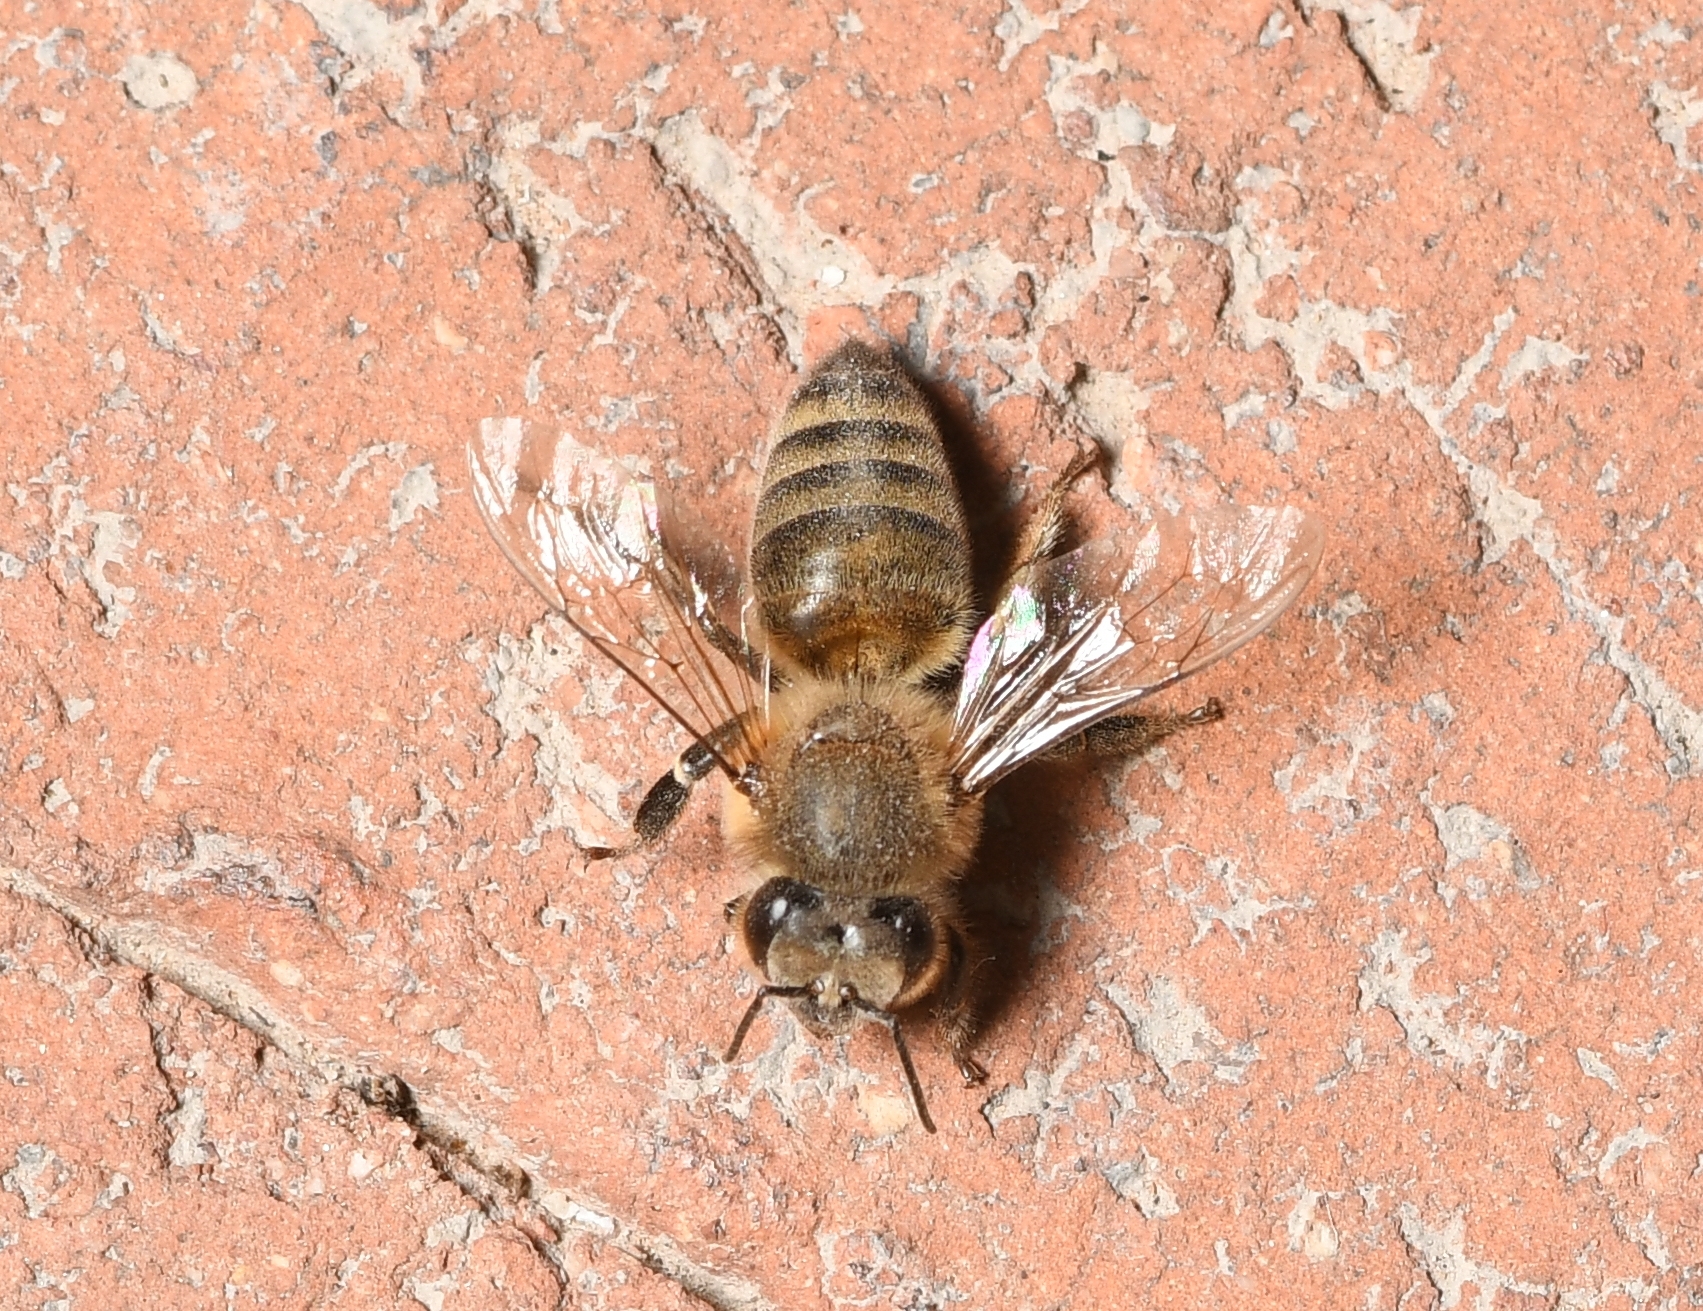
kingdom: Animalia
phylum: Arthropoda
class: Insecta
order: Hymenoptera
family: Apidae
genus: Apis
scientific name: Apis mellifera
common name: Honey bee
